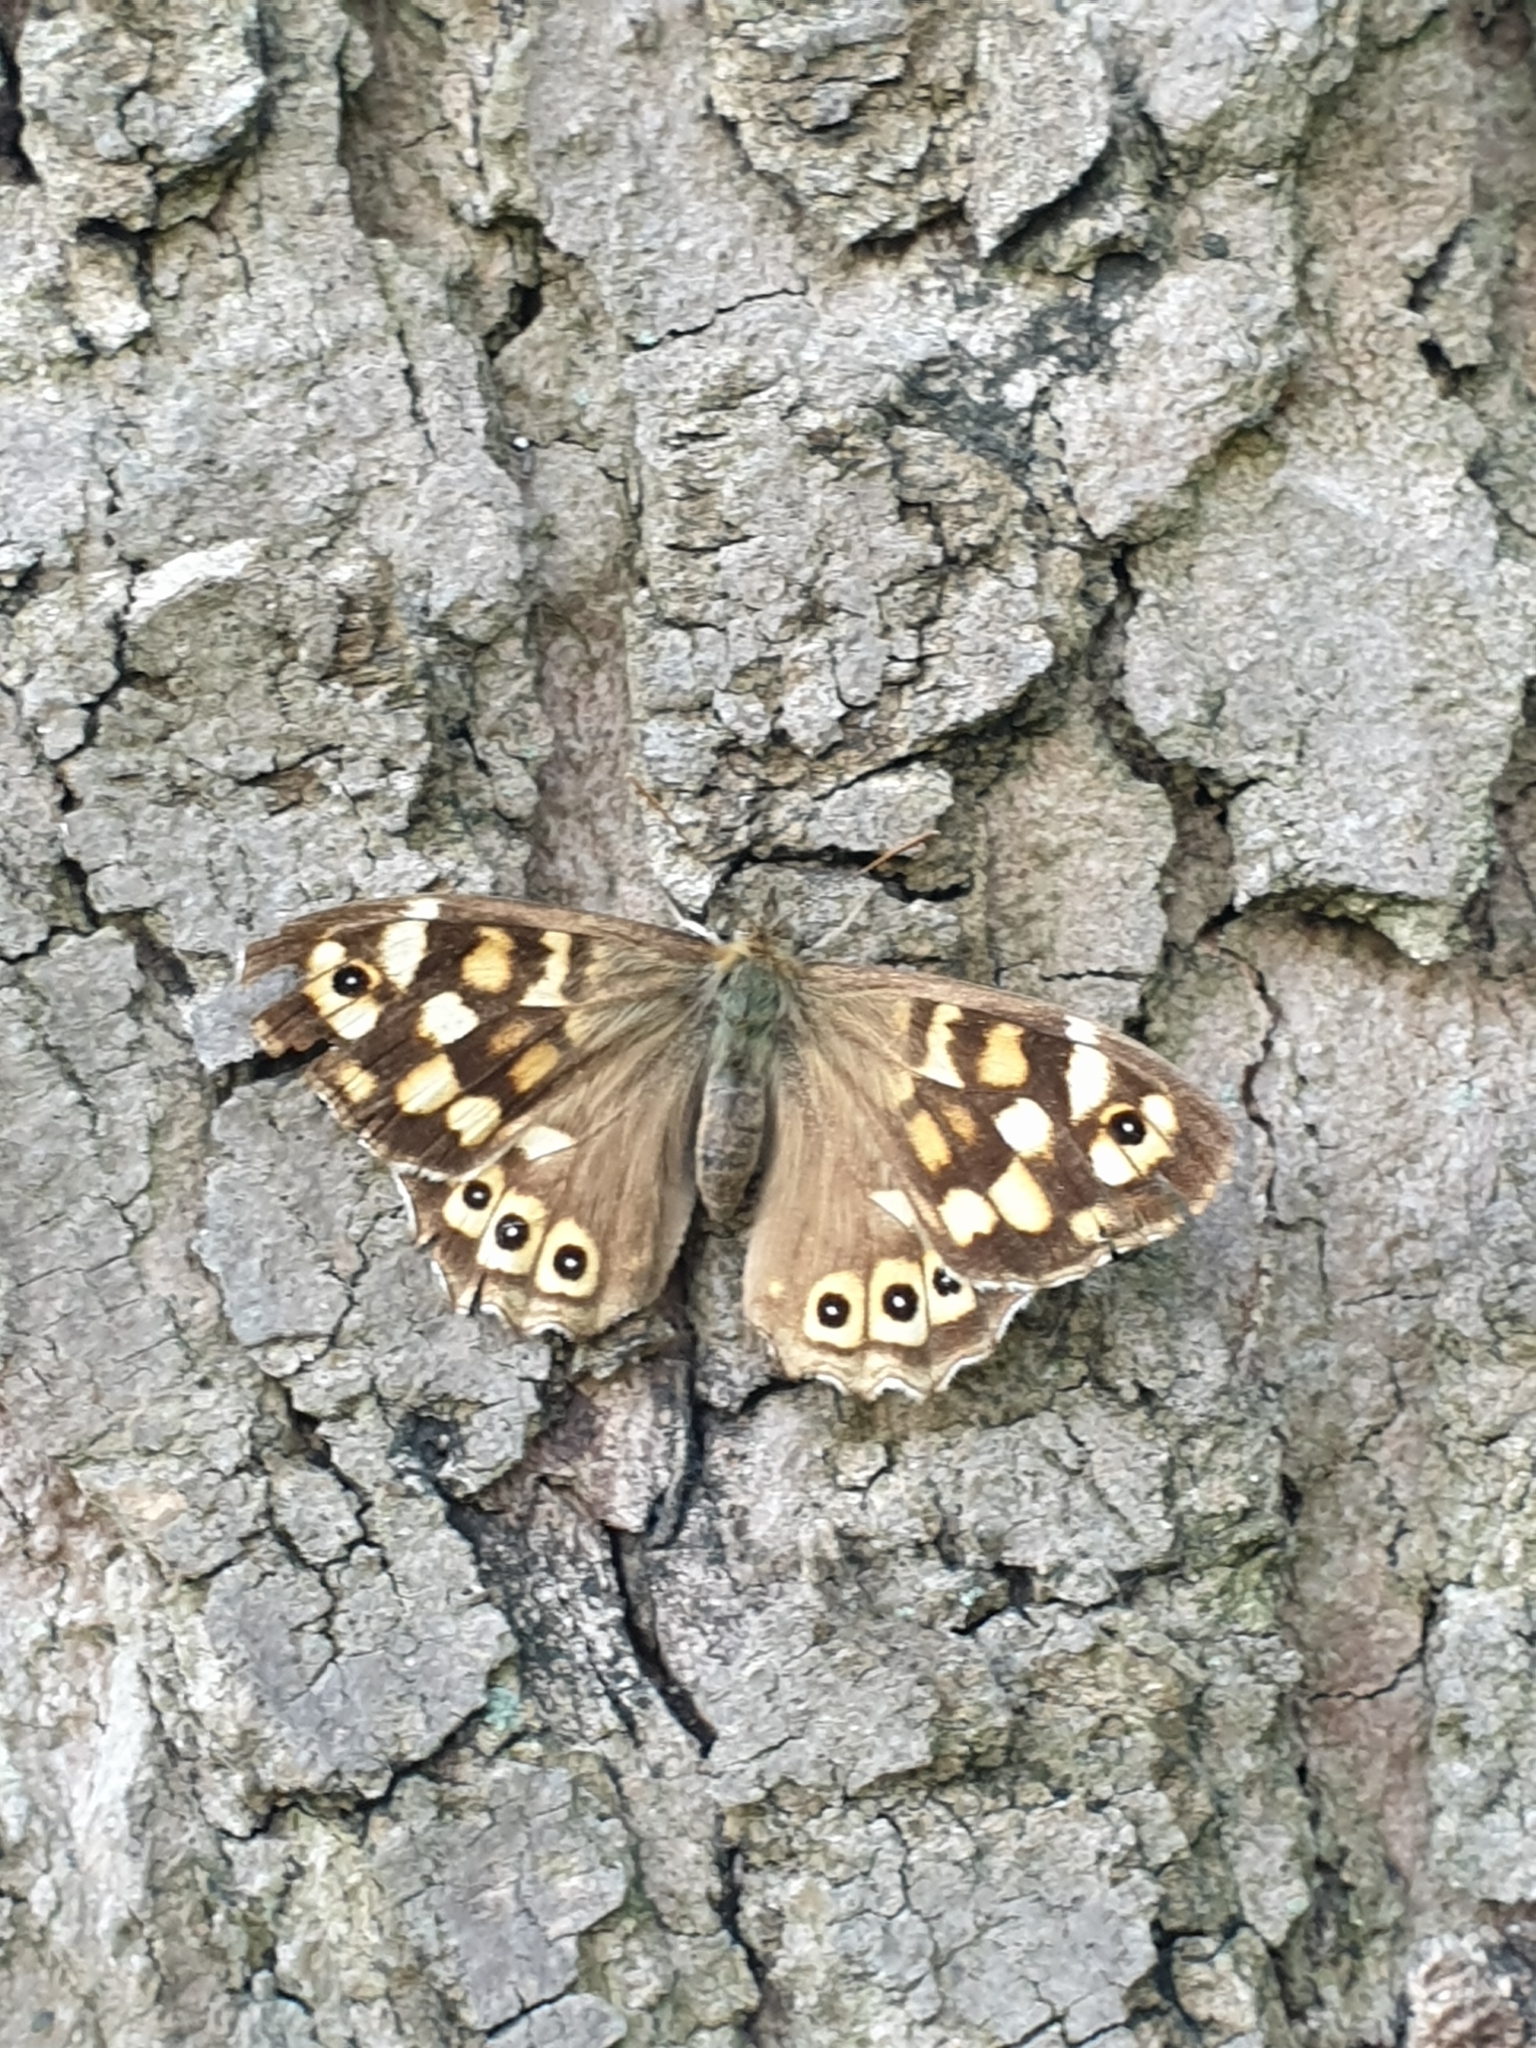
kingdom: Animalia
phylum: Arthropoda
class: Insecta
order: Lepidoptera
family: Nymphalidae
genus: Pararge
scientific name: Pararge aegeria
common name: Speckled wood
